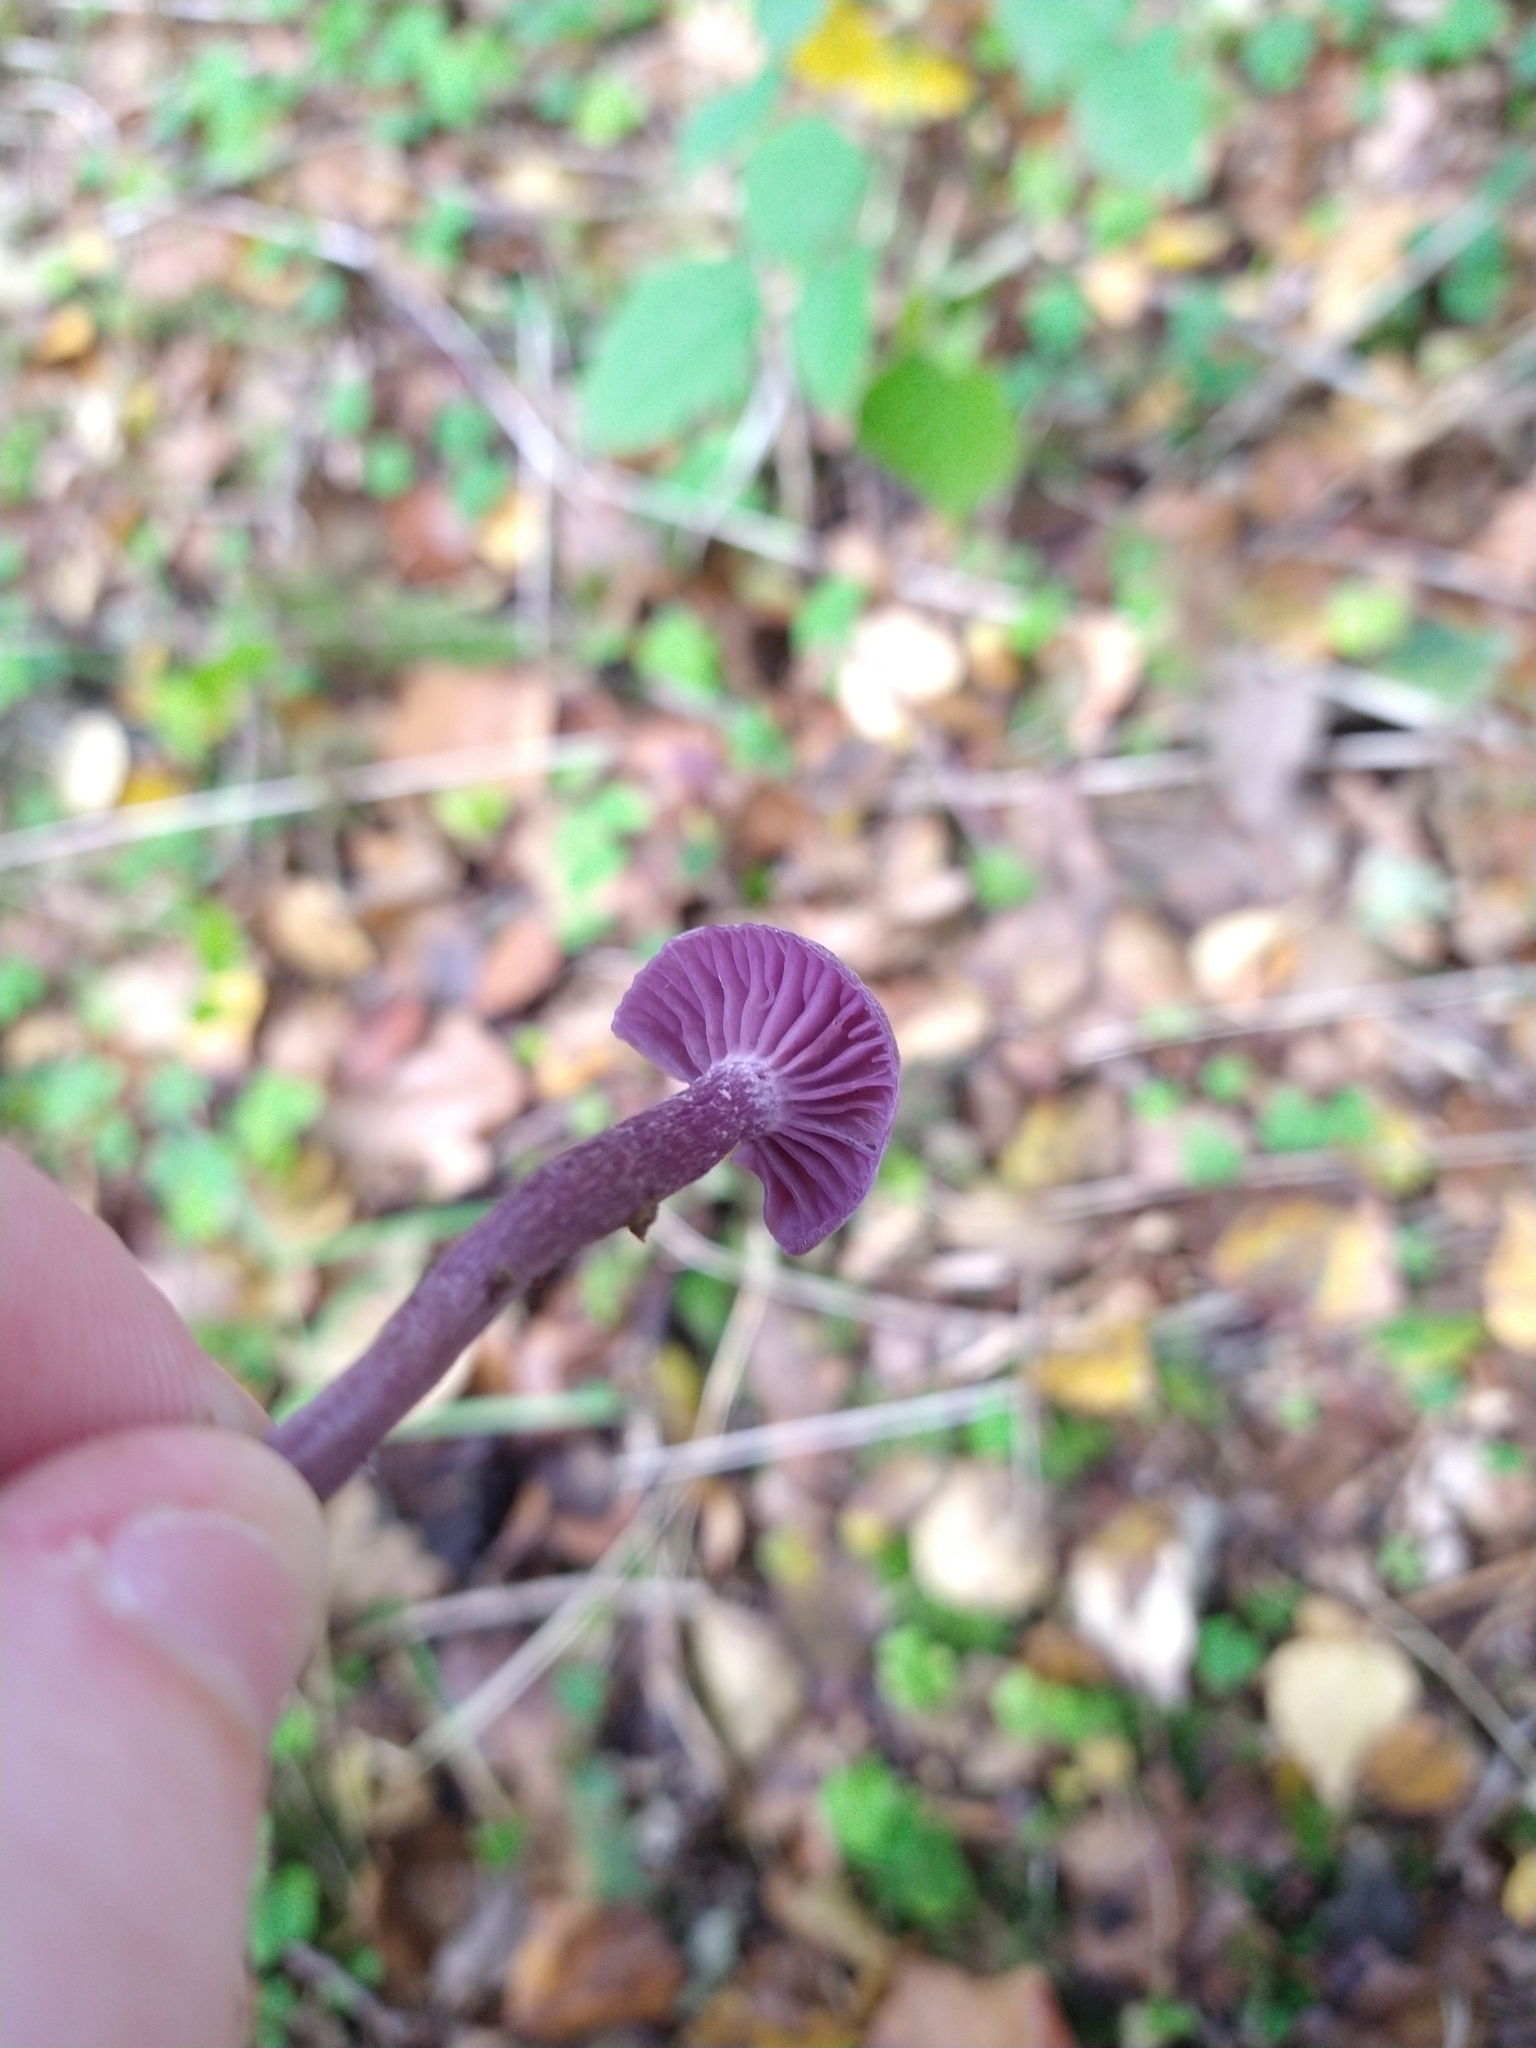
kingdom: Fungi
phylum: Basidiomycota
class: Agaricomycetes
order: Agaricales
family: Hydnangiaceae
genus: Laccaria
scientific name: Laccaria amethystina
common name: Amethyst deceiver
